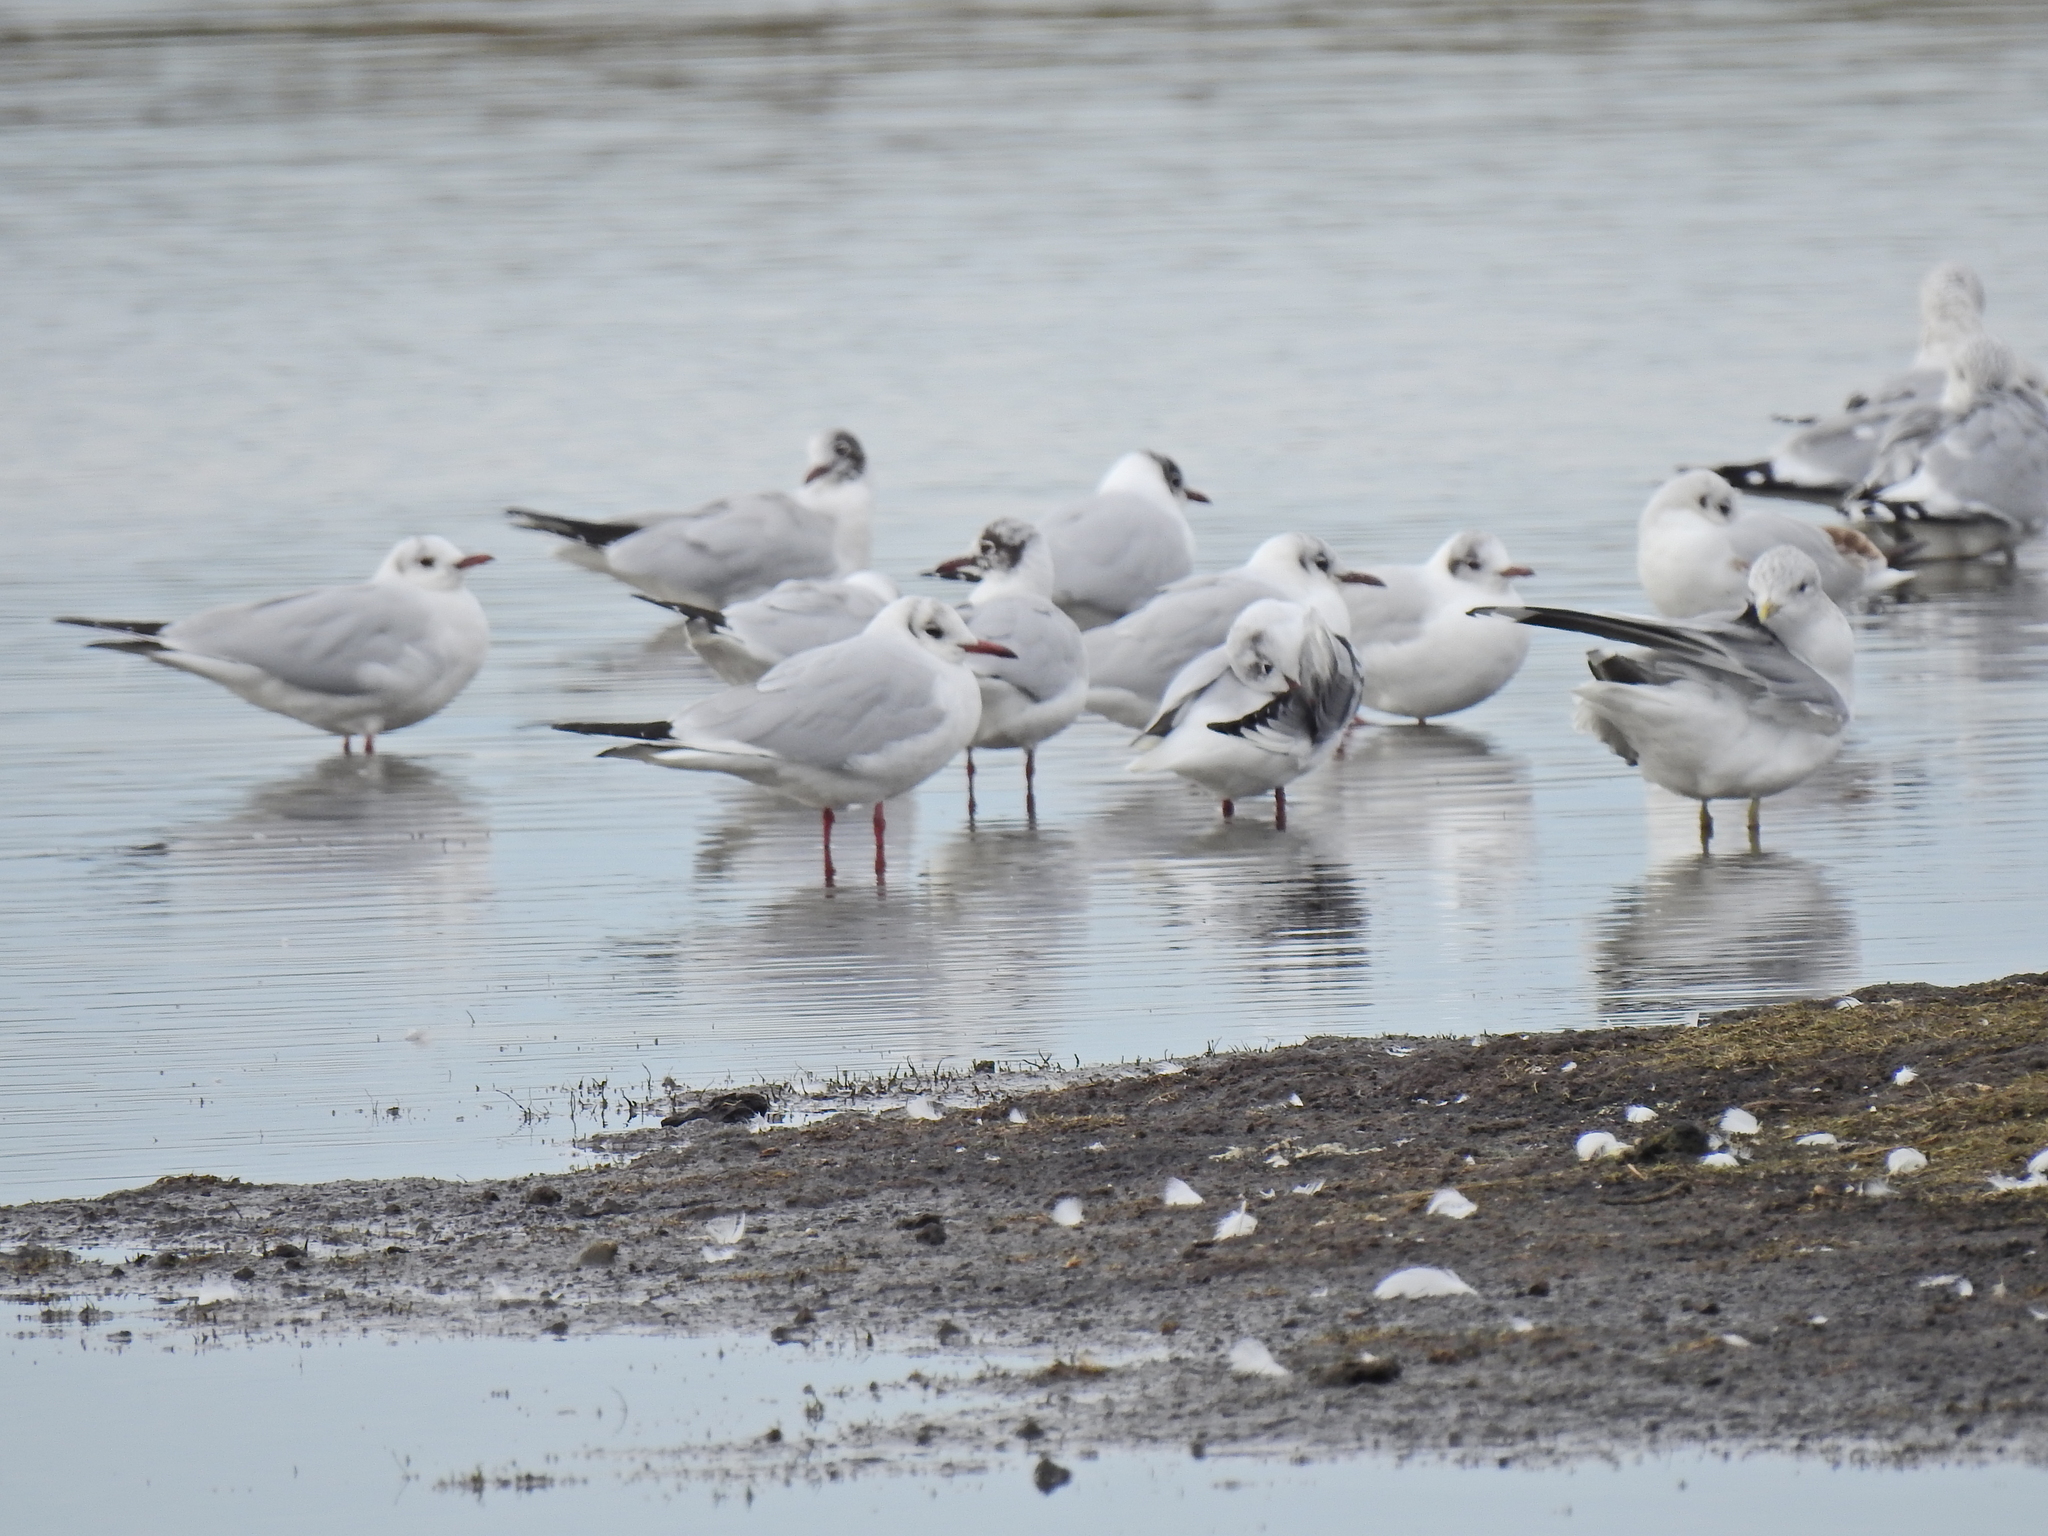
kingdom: Animalia
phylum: Chordata
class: Aves
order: Charadriiformes
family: Laridae
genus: Larus
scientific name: Larus canus
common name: Mew gull
